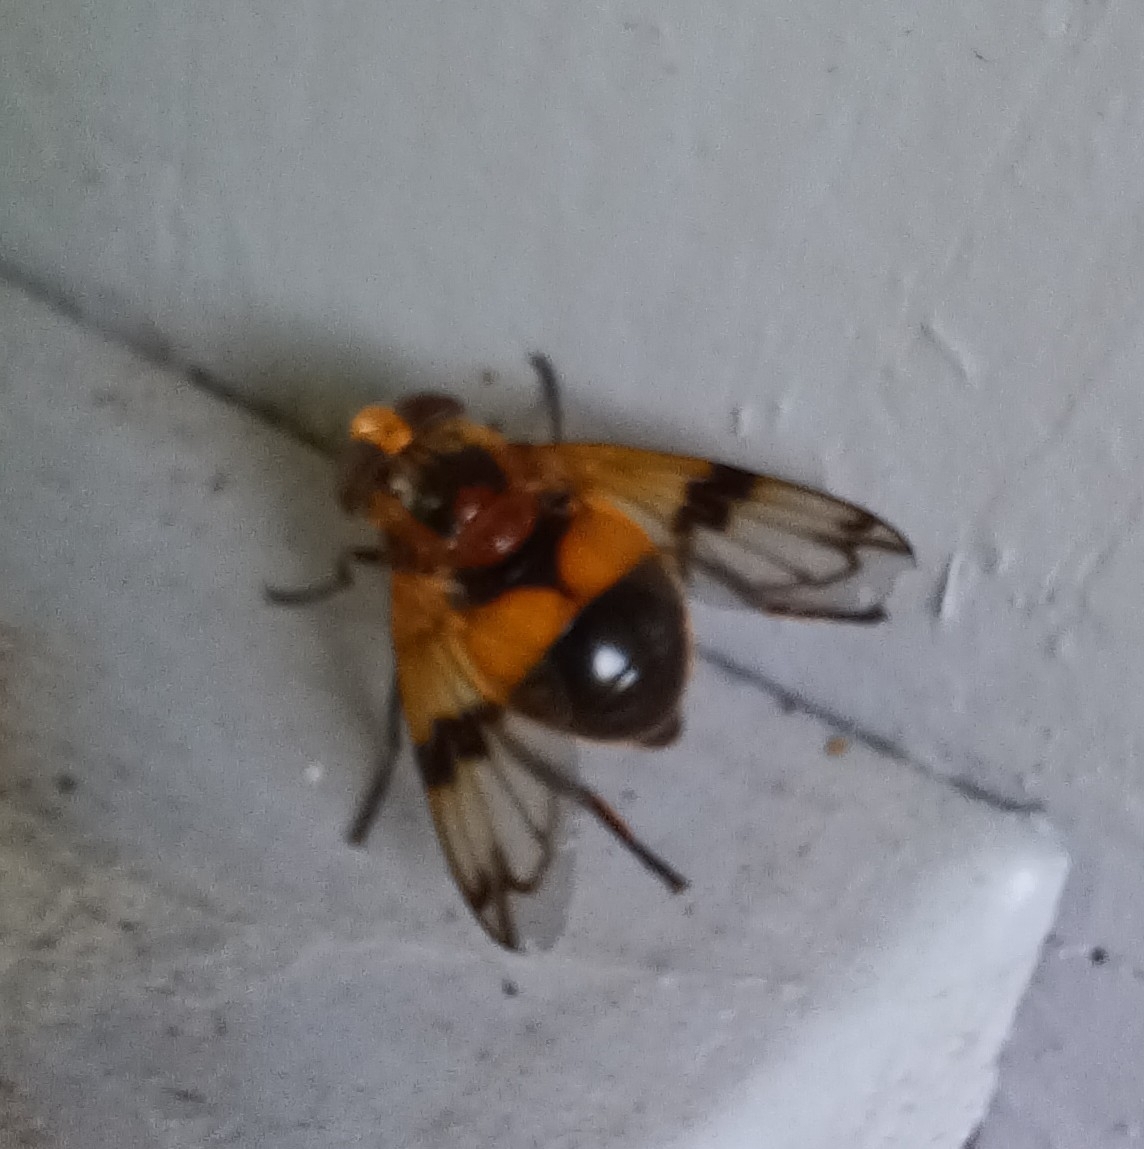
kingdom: Animalia
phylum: Arthropoda
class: Insecta
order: Diptera
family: Syrphidae
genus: Volucella
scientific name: Volucella inflata
